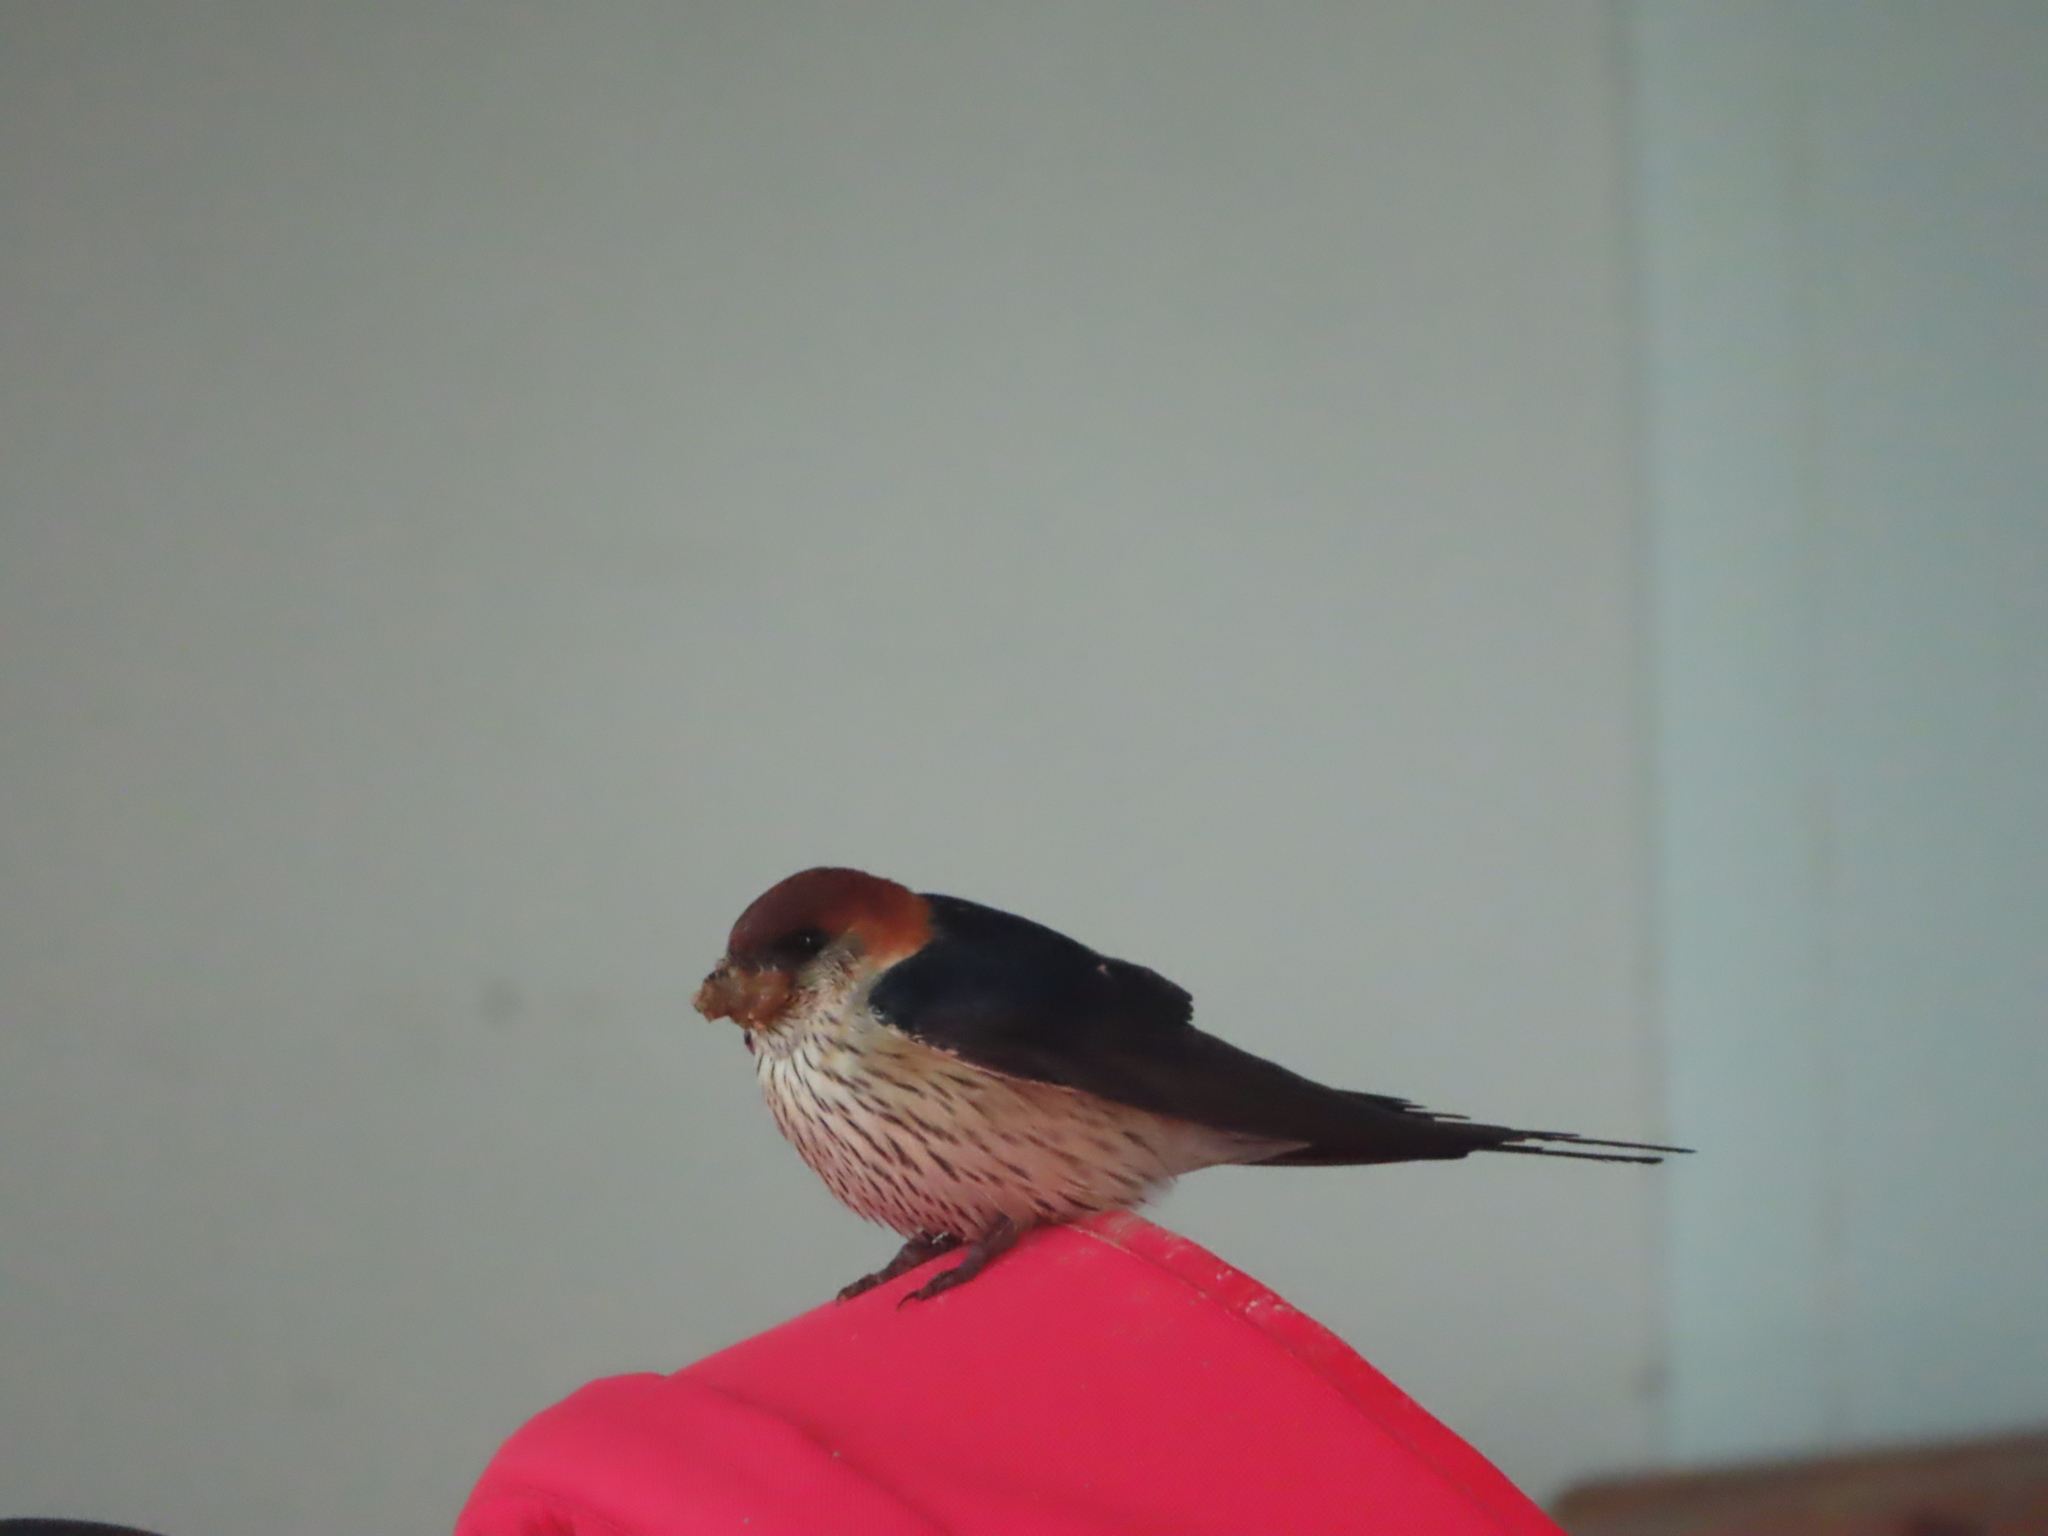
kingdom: Animalia
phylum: Chordata
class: Aves
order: Passeriformes
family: Hirundinidae
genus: Cecropis
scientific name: Cecropis cucullata
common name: Greater striped-swallow
